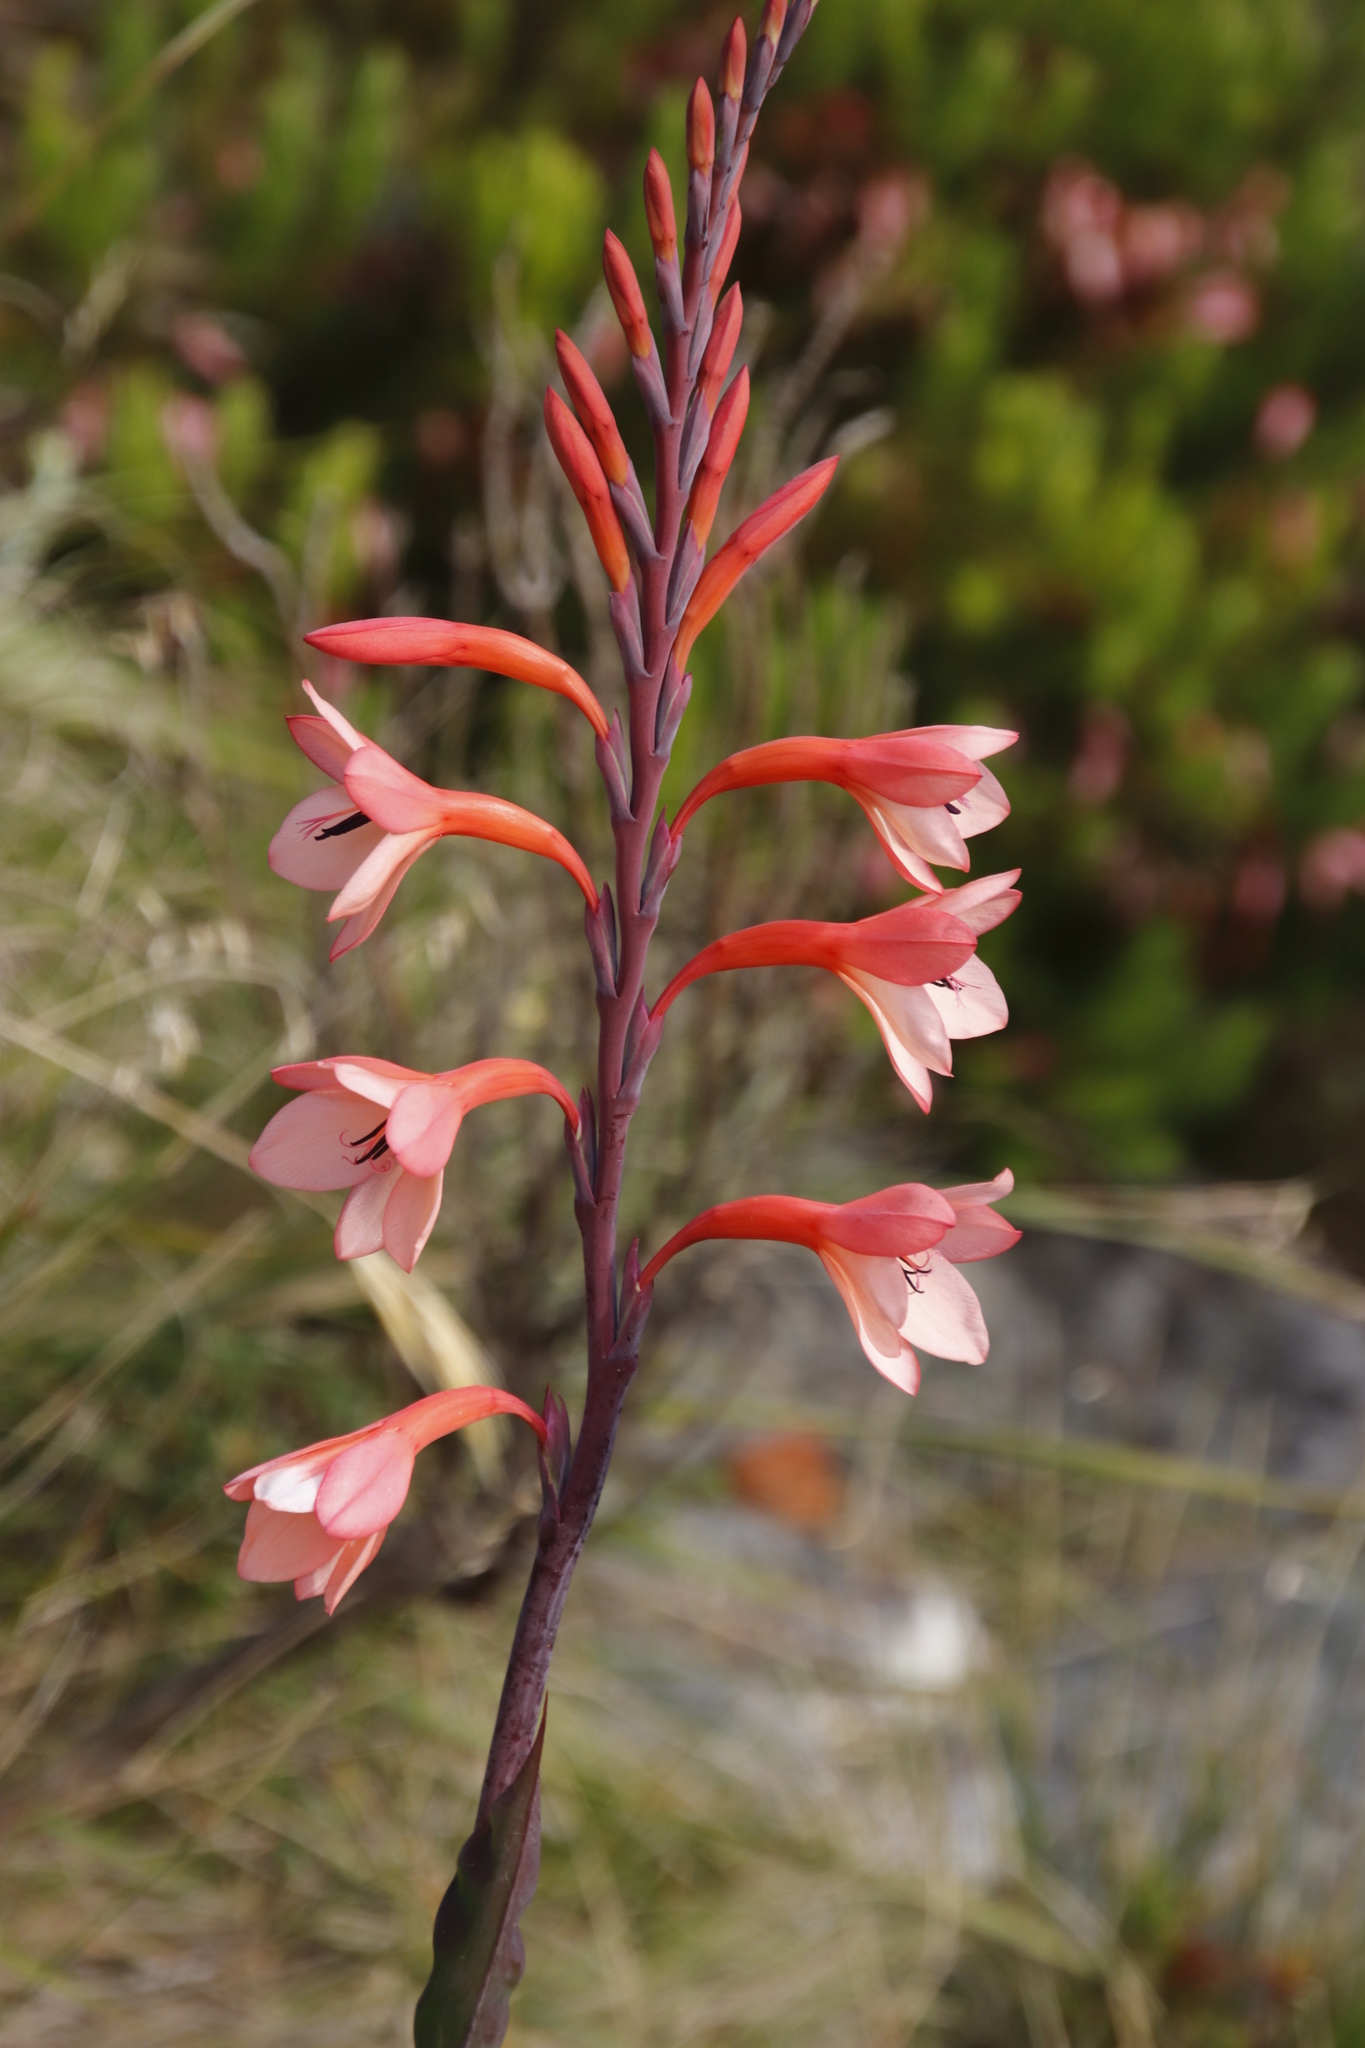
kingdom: Plantae
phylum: Tracheophyta
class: Liliopsida
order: Asparagales
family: Iridaceae
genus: Watsonia
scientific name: Watsonia tabularis
